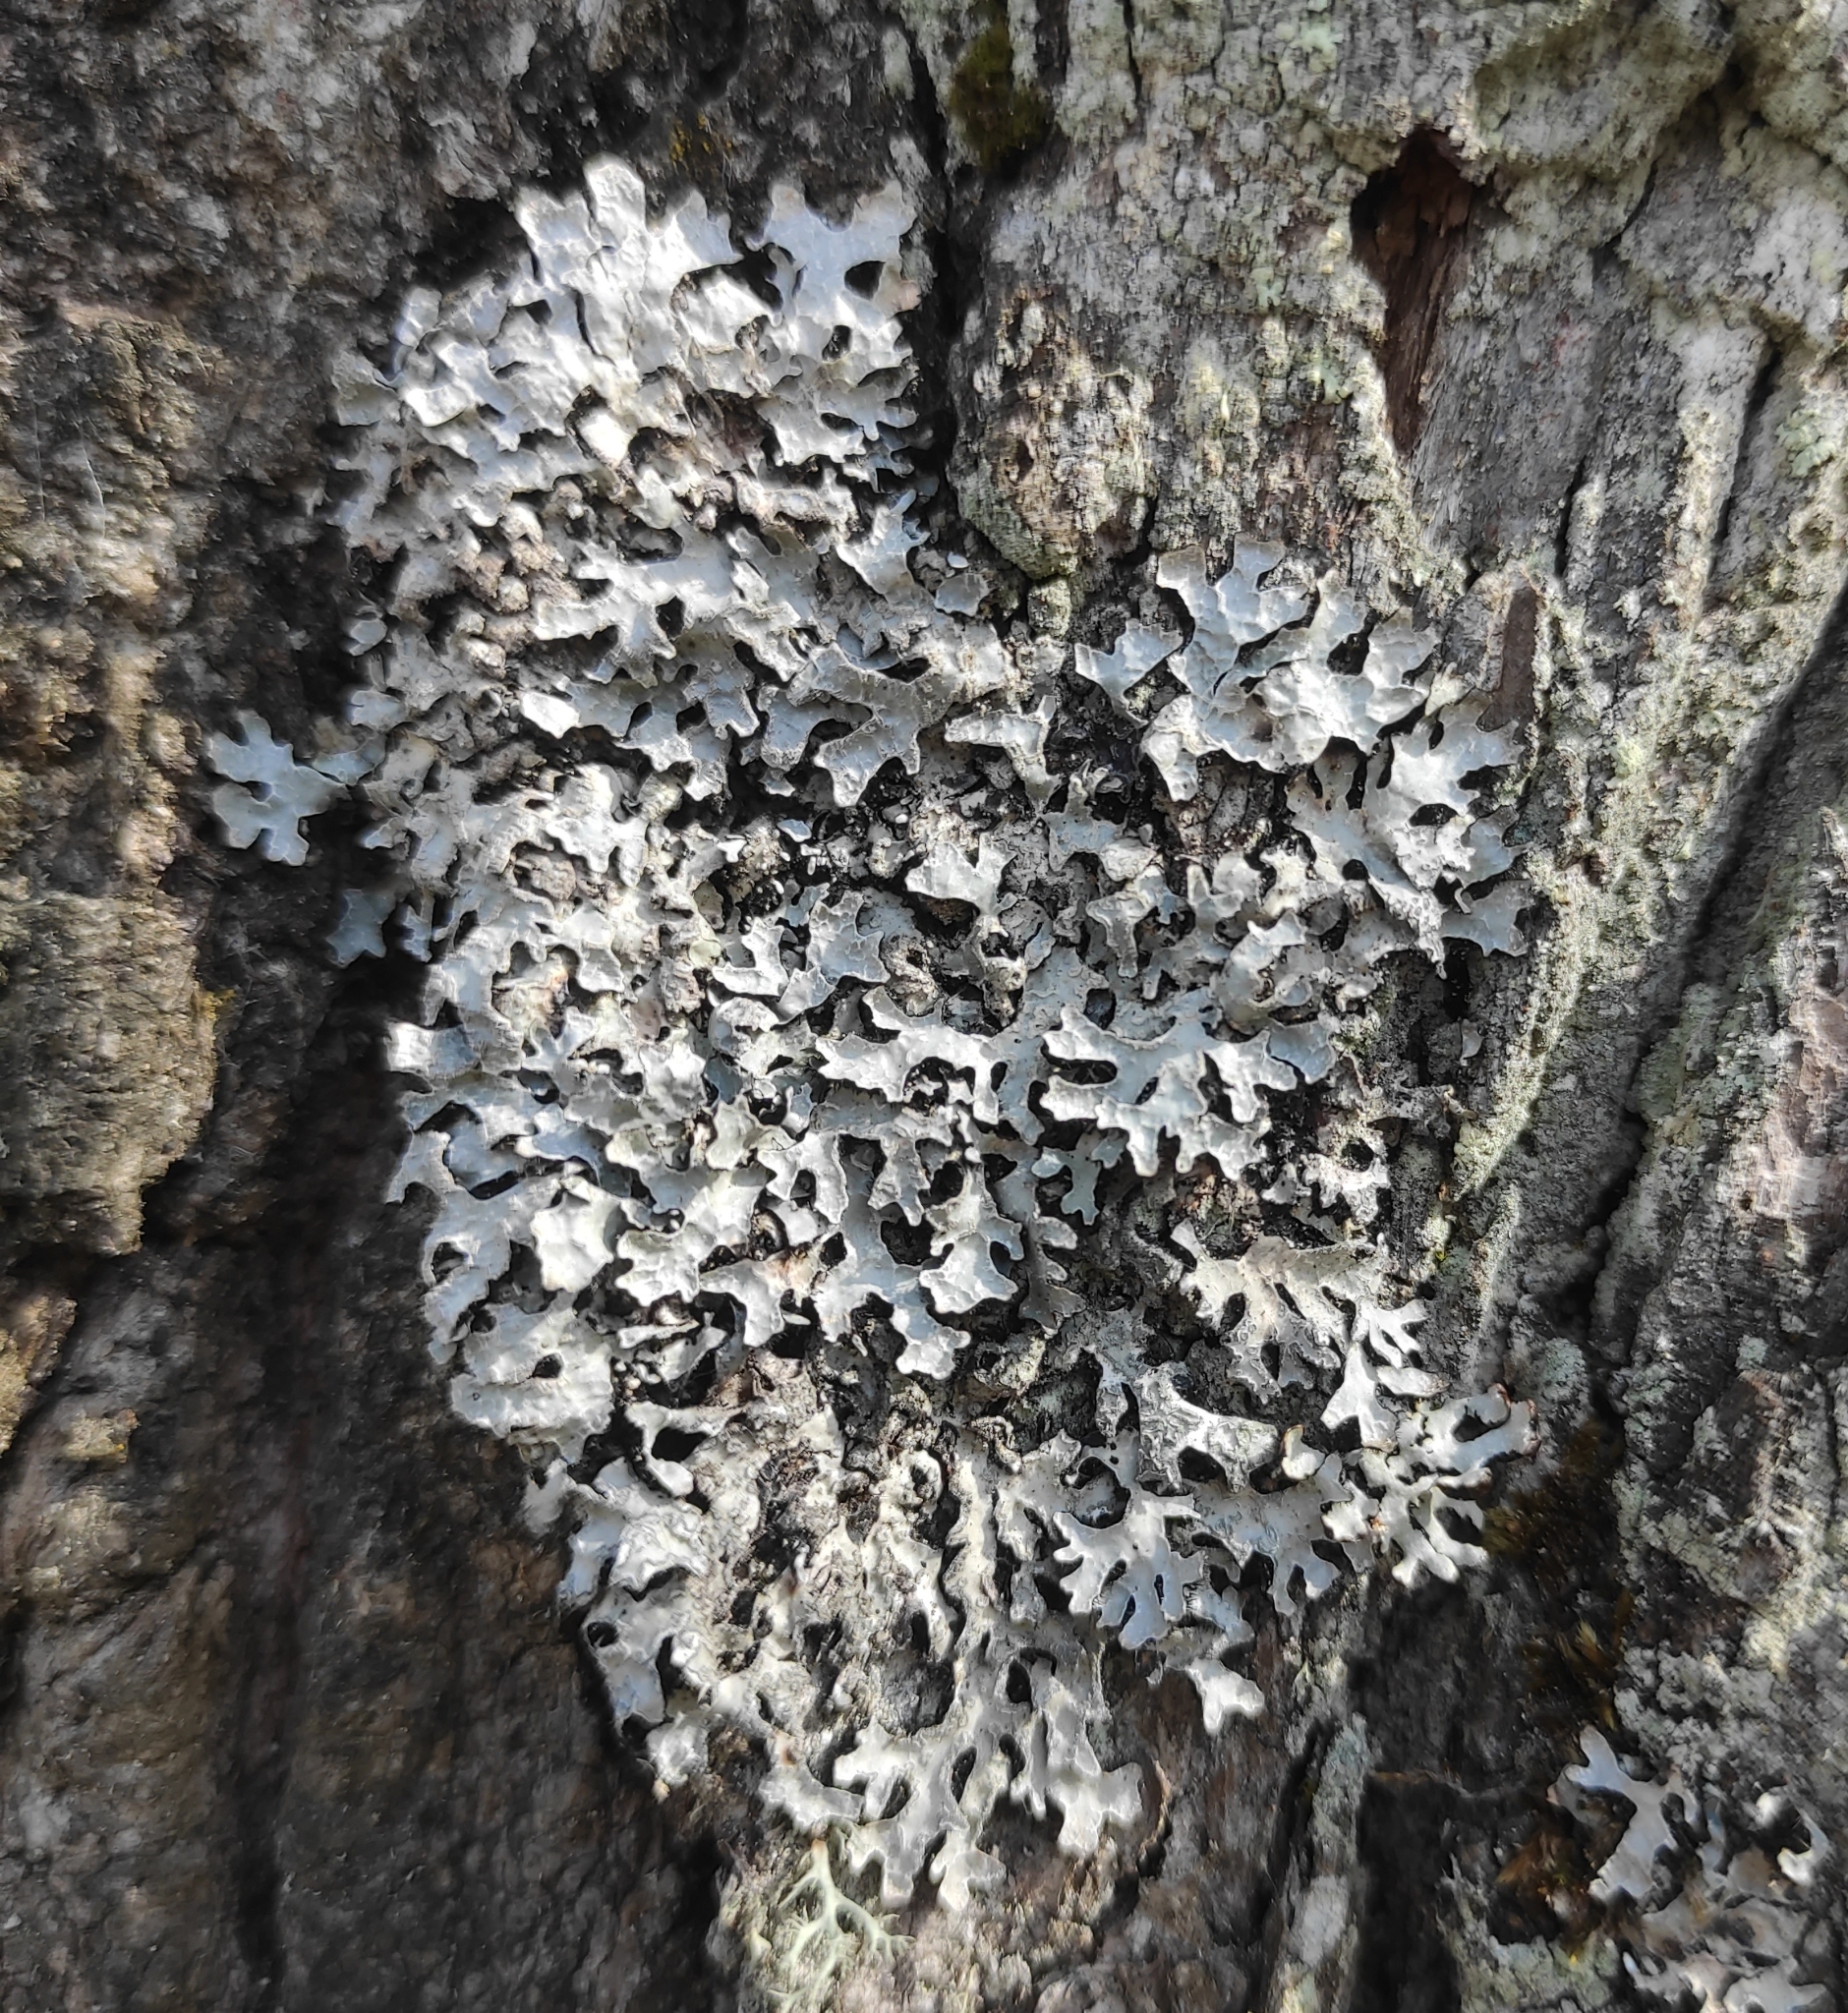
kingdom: Fungi
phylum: Ascomycota
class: Lecanoromycetes
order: Lecanorales
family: Parmeliaceae
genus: Parmelia
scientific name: Parmelia sulcata
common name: Netted shield lichen
